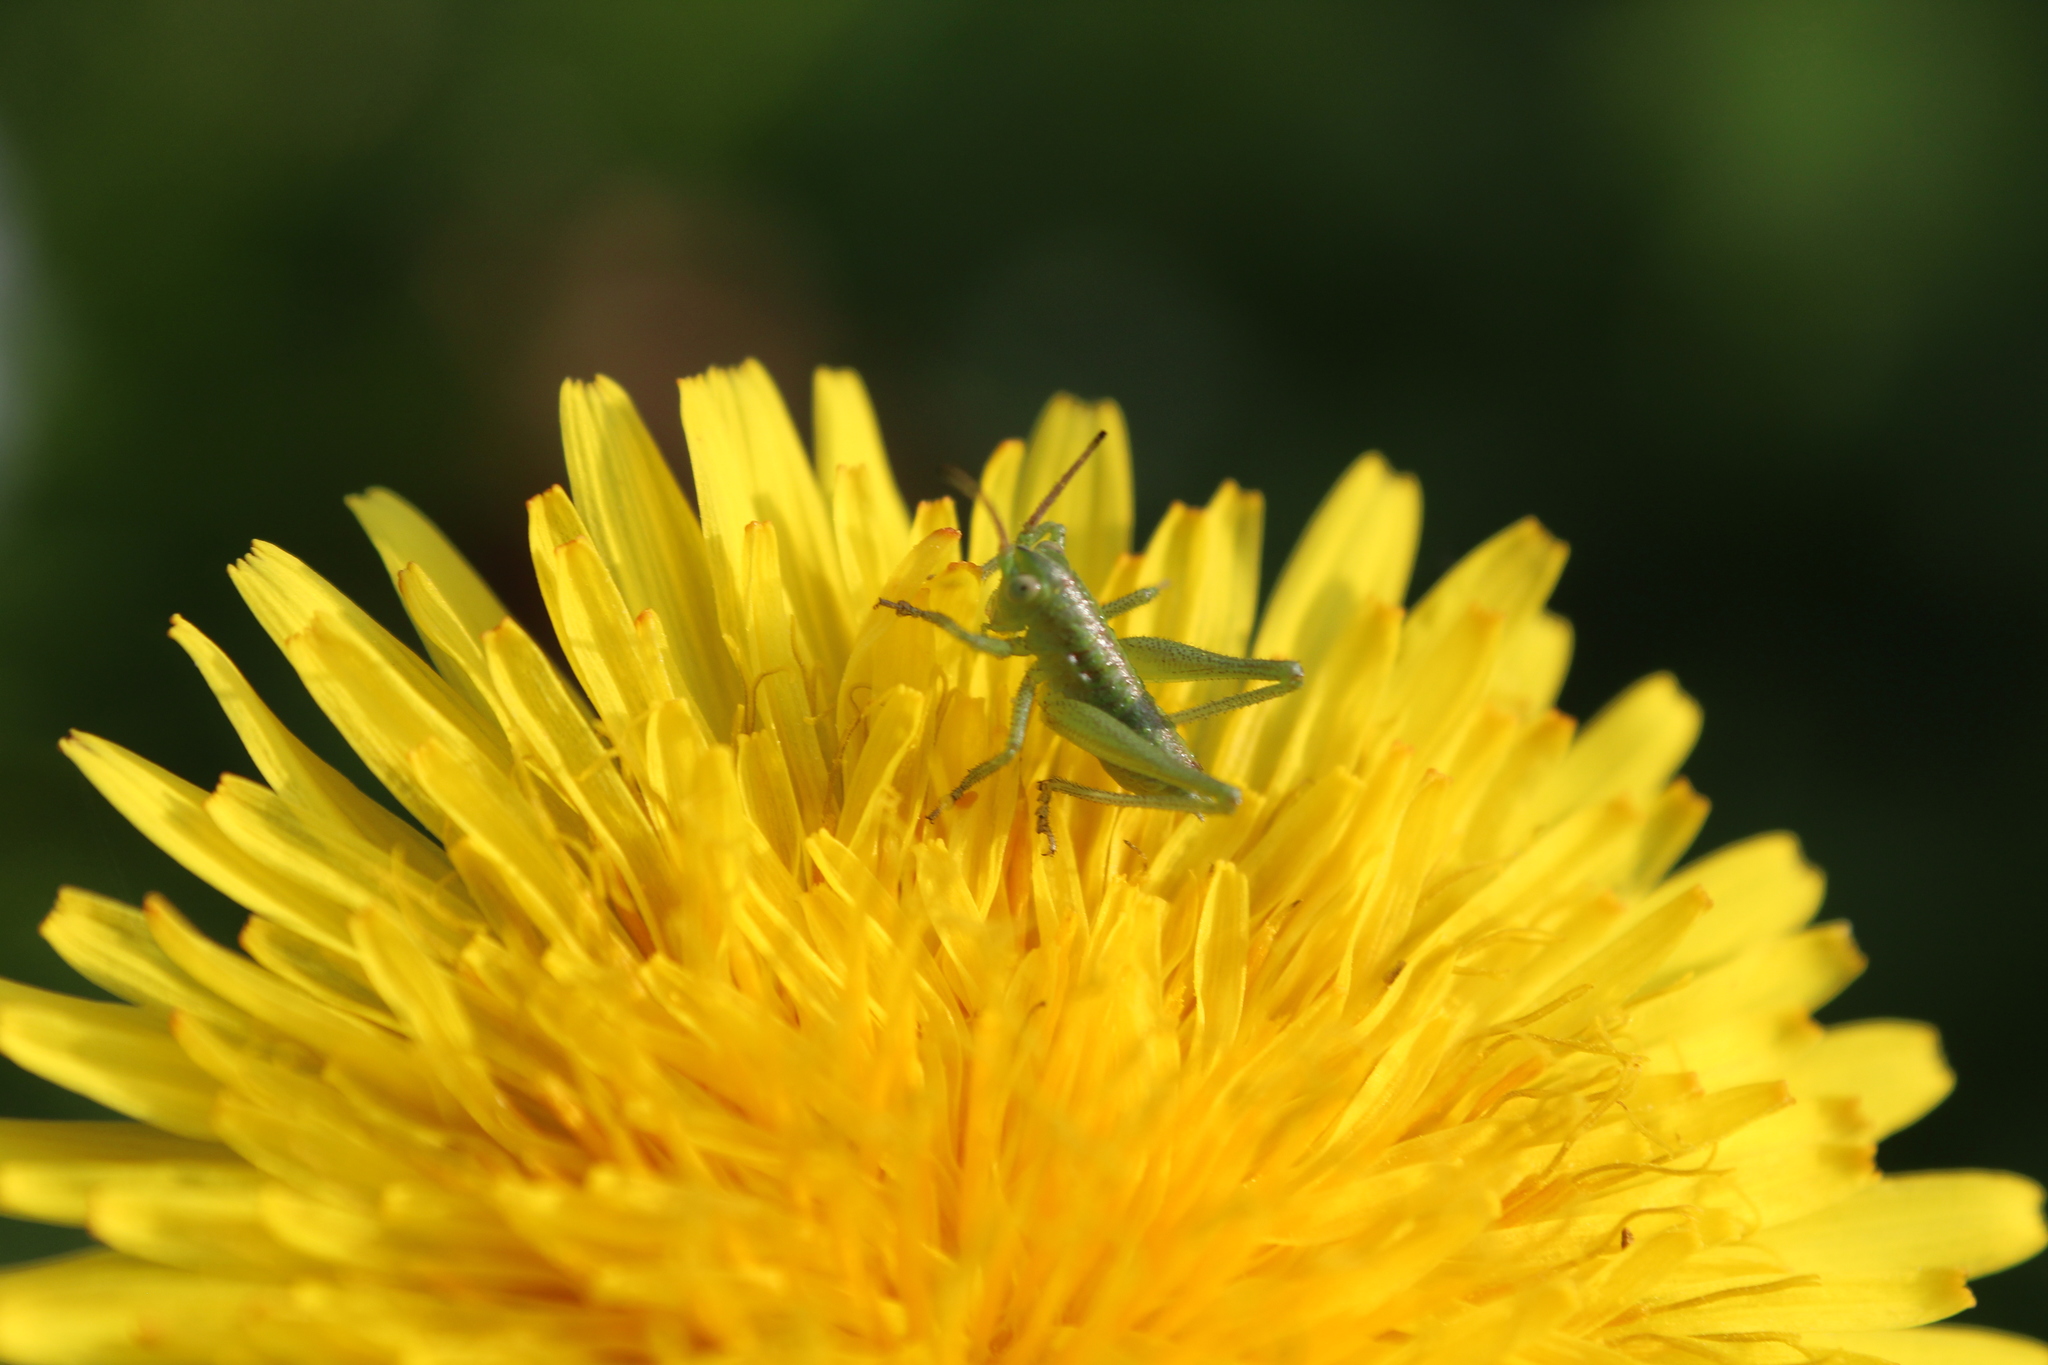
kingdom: Animalia
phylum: Arthropoda
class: Insecta
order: Orthoptera
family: Tettigoniidae
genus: Tettigonia
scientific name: Tettigonia viridissima
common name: Great green bush-cricket
